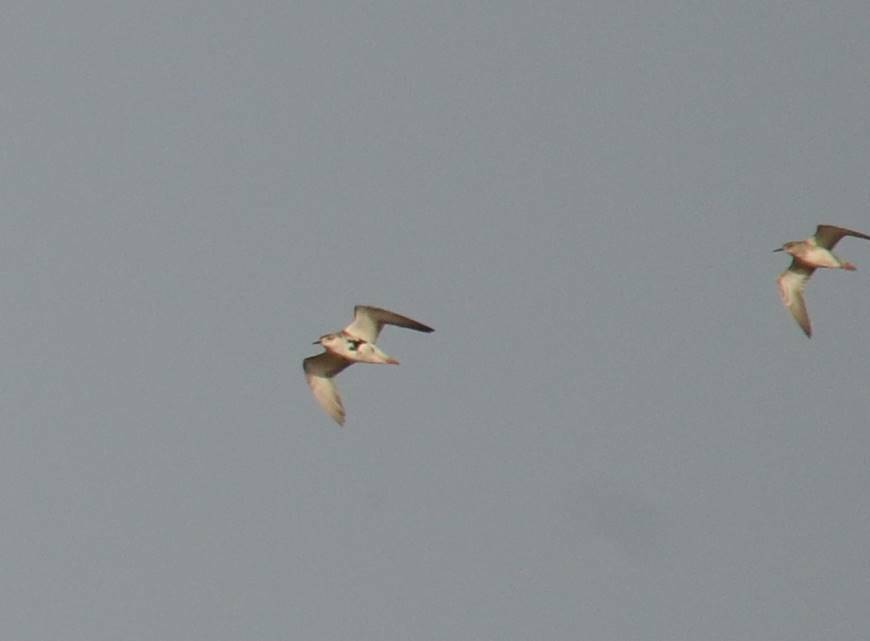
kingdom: Animalia
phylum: Chordata
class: Aves
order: Charadriiformes
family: Scolopacidae
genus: Calidris
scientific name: Calidris pugnax
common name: Ruff
